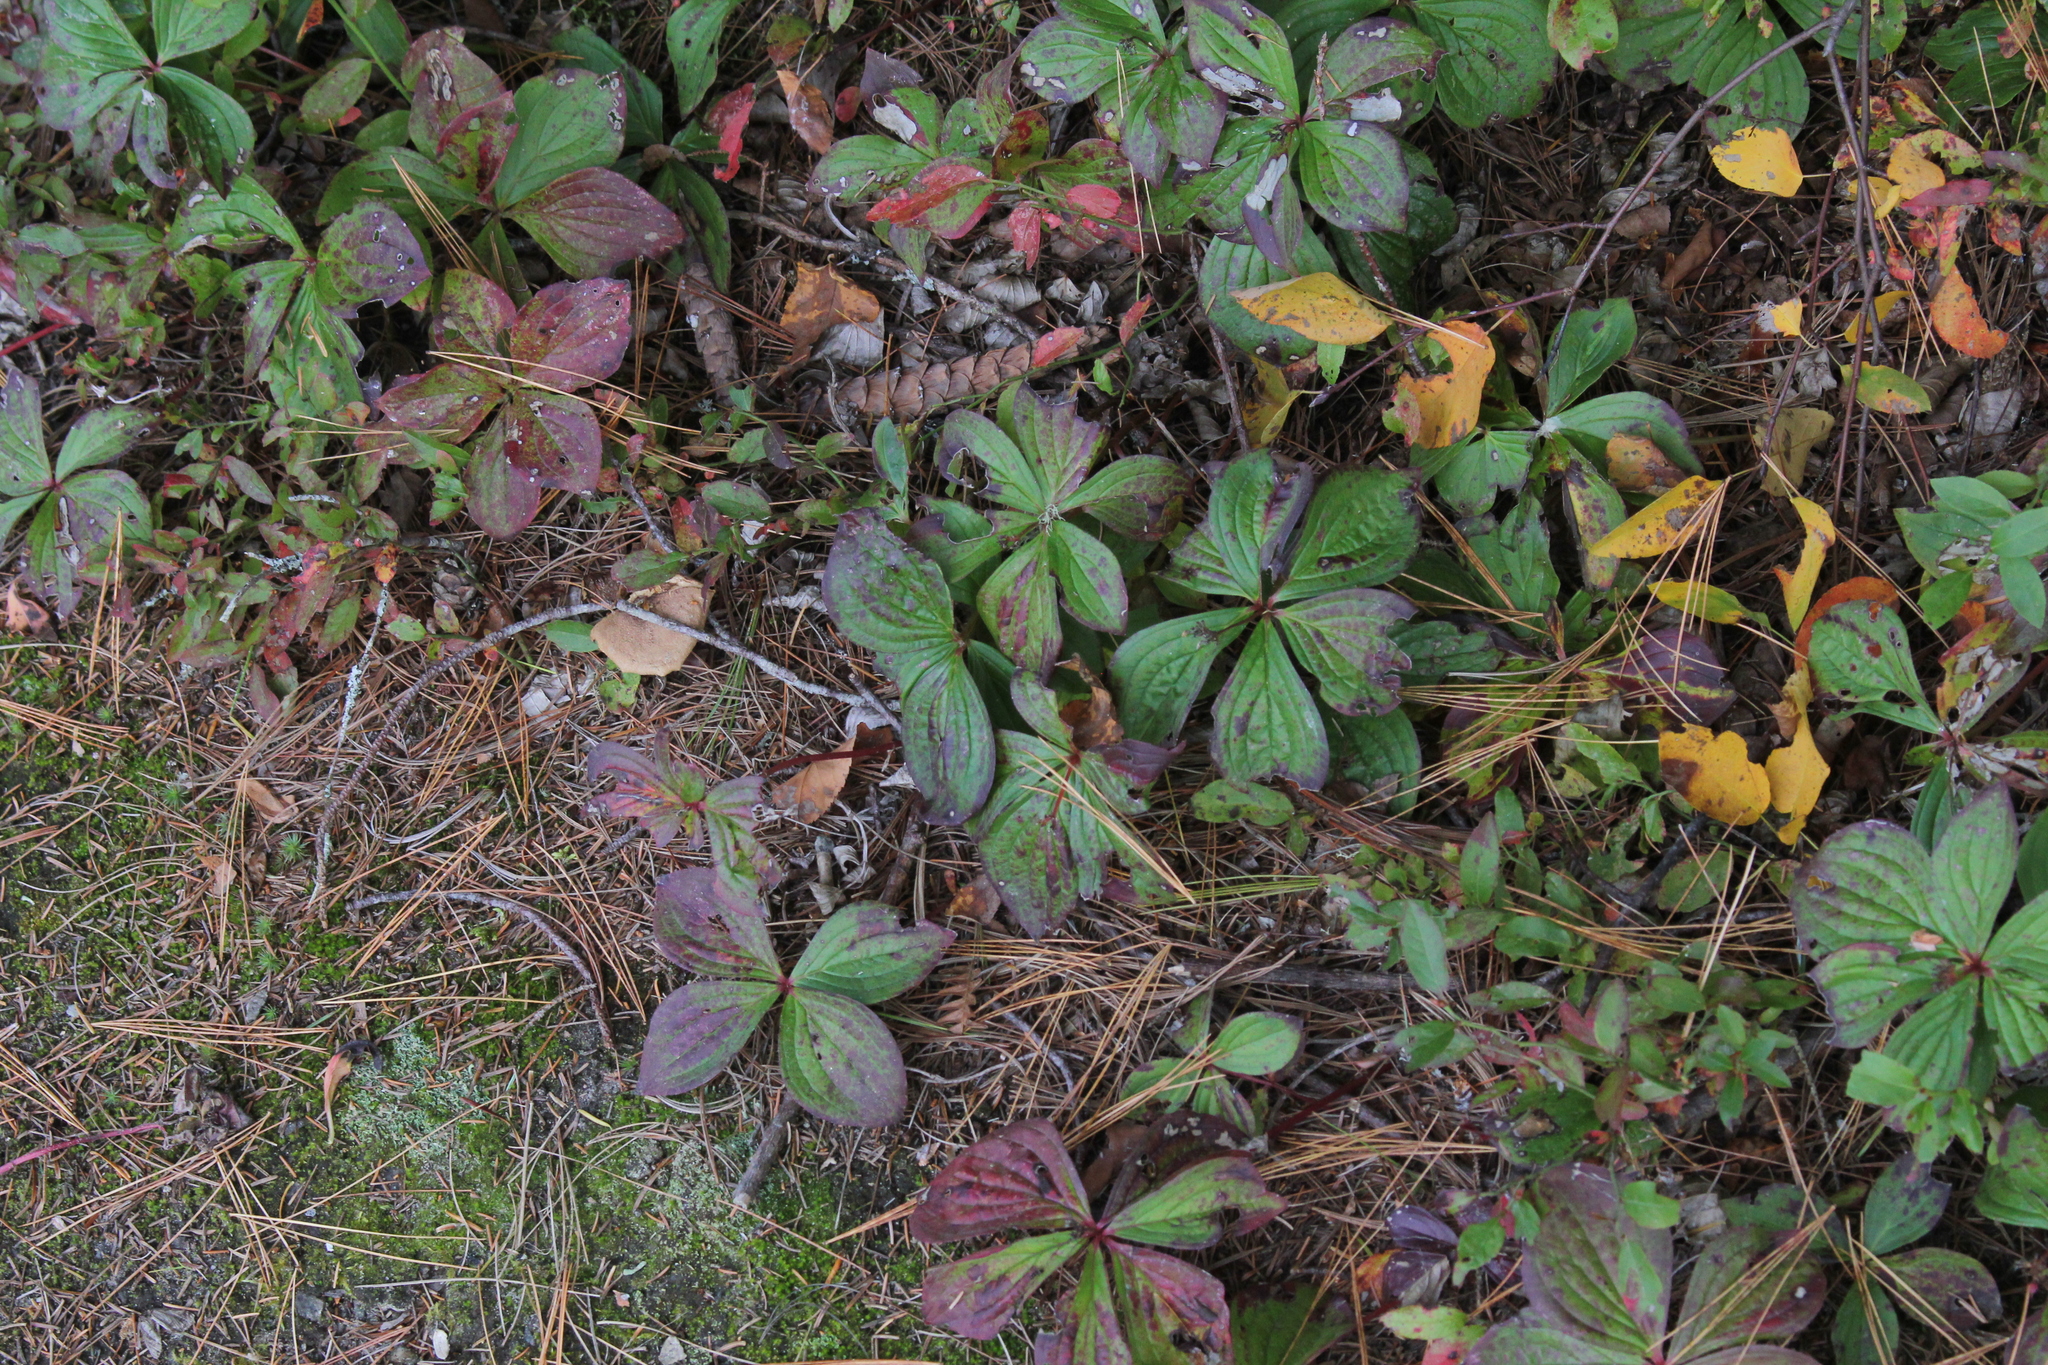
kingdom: Plantae
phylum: Tracheophyta
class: Magnoliopsida
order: Cornales
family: Cornaceae
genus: Cornus
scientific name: Cornus canadensis
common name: Creeping dogwood
